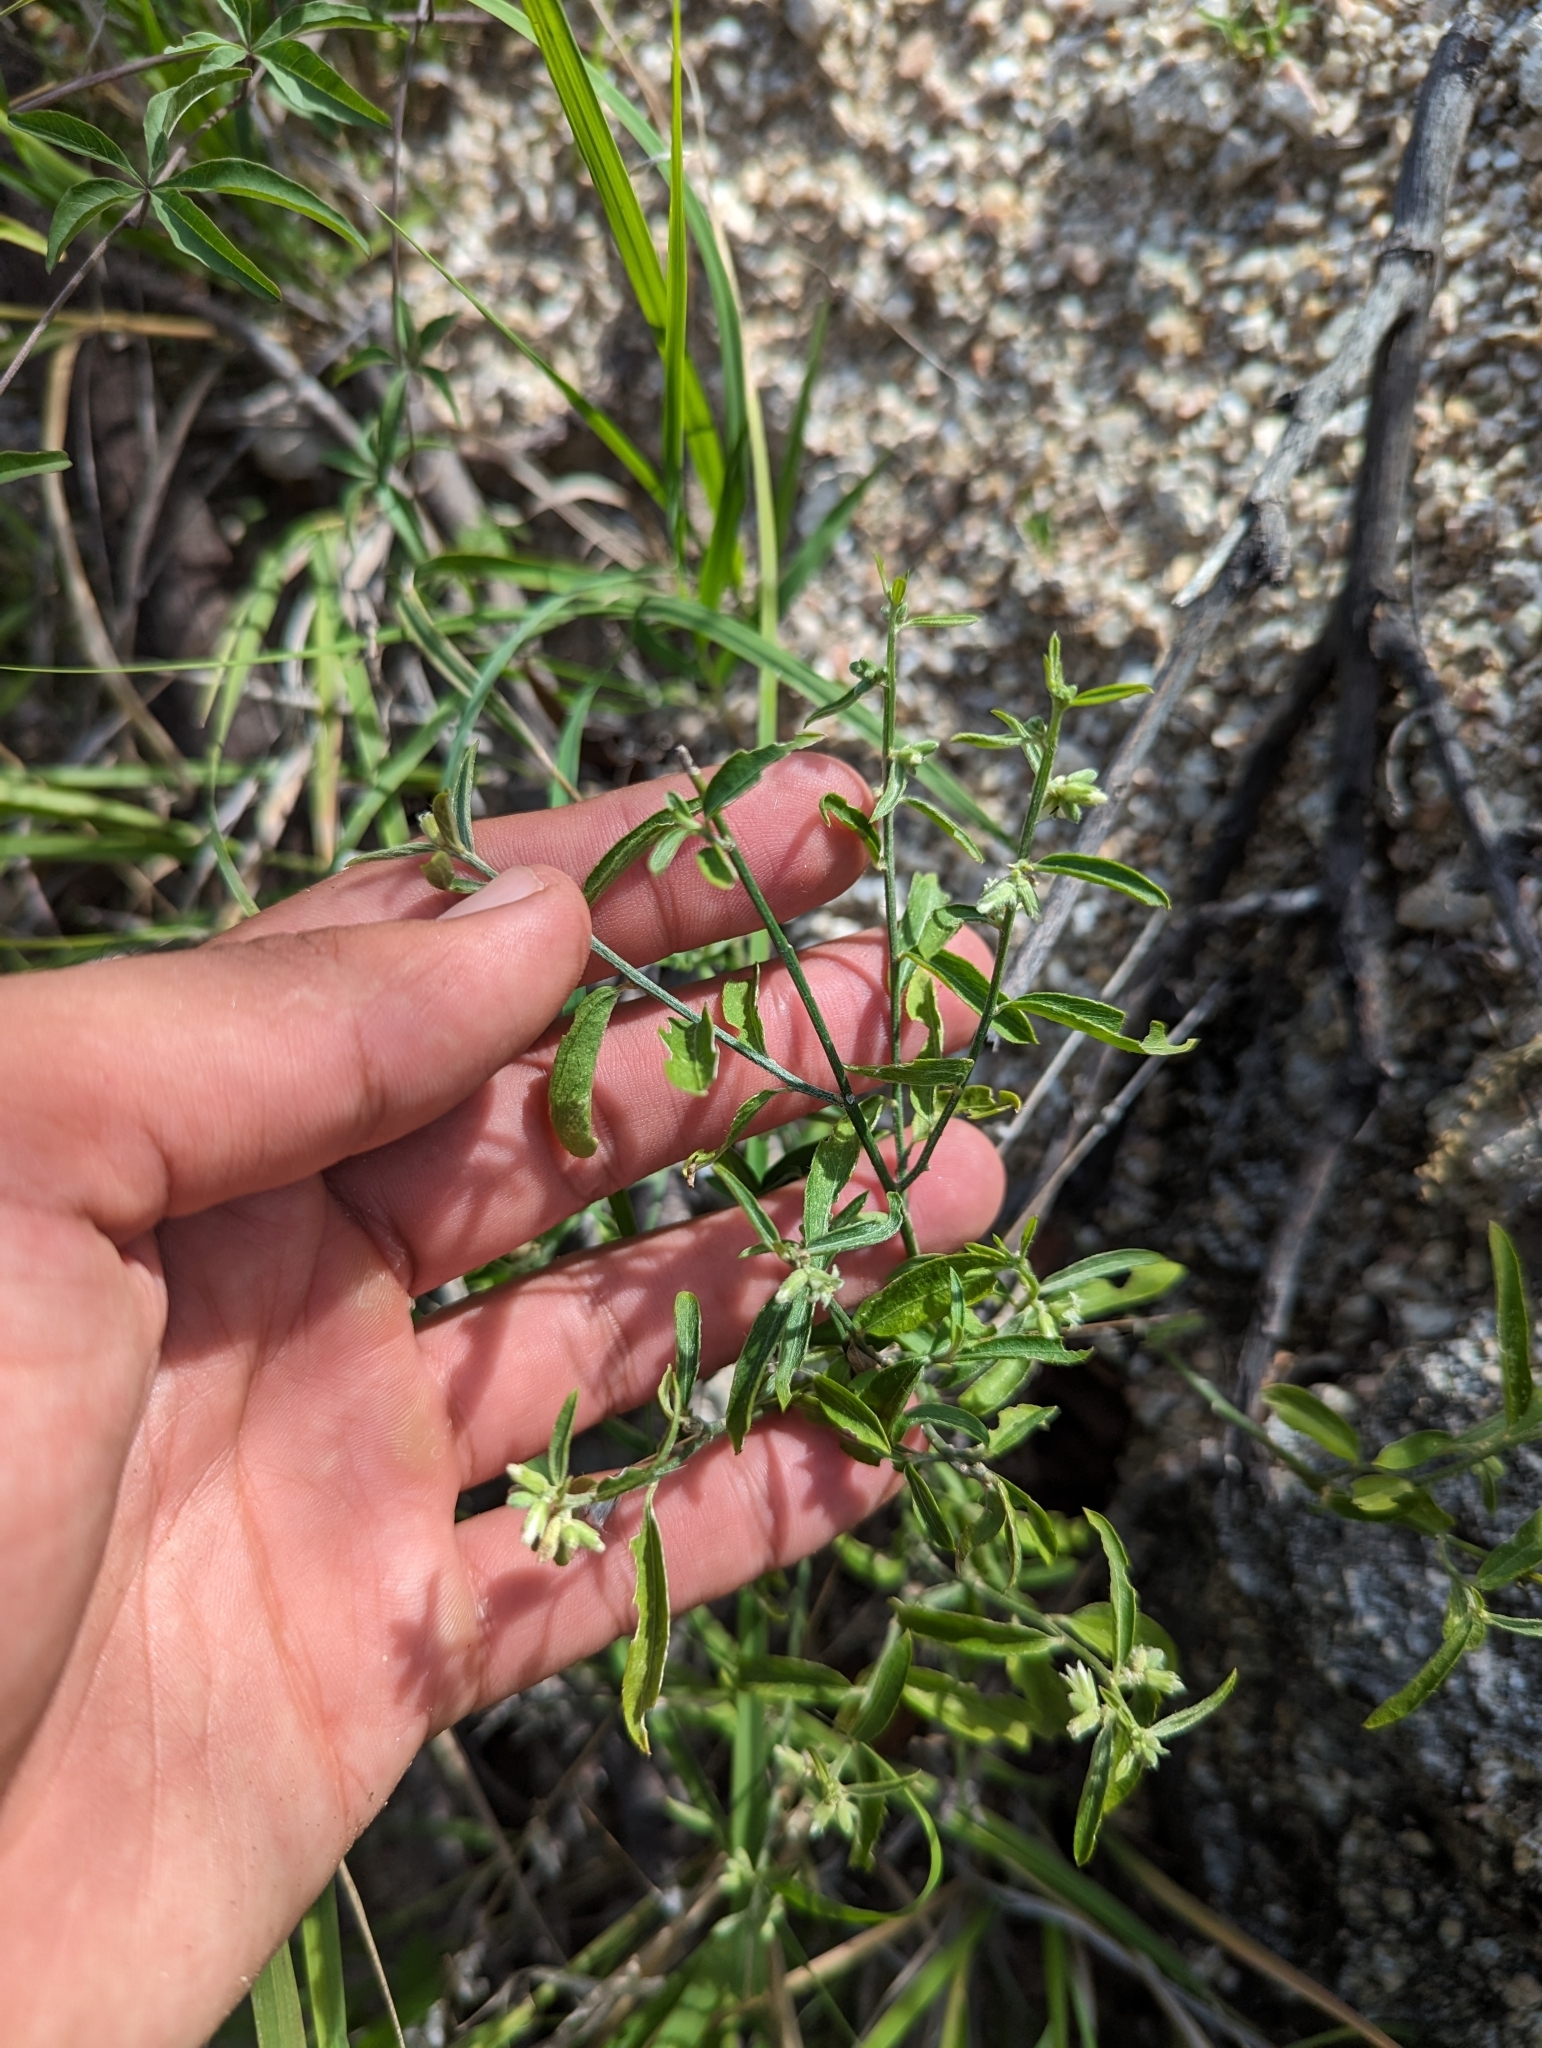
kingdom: Plantae
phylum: Tracheophyta
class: Magnoliopsida
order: Malpighiales
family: Euphorbiaceae
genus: Ditaxis
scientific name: Ditaxis lanceolata
